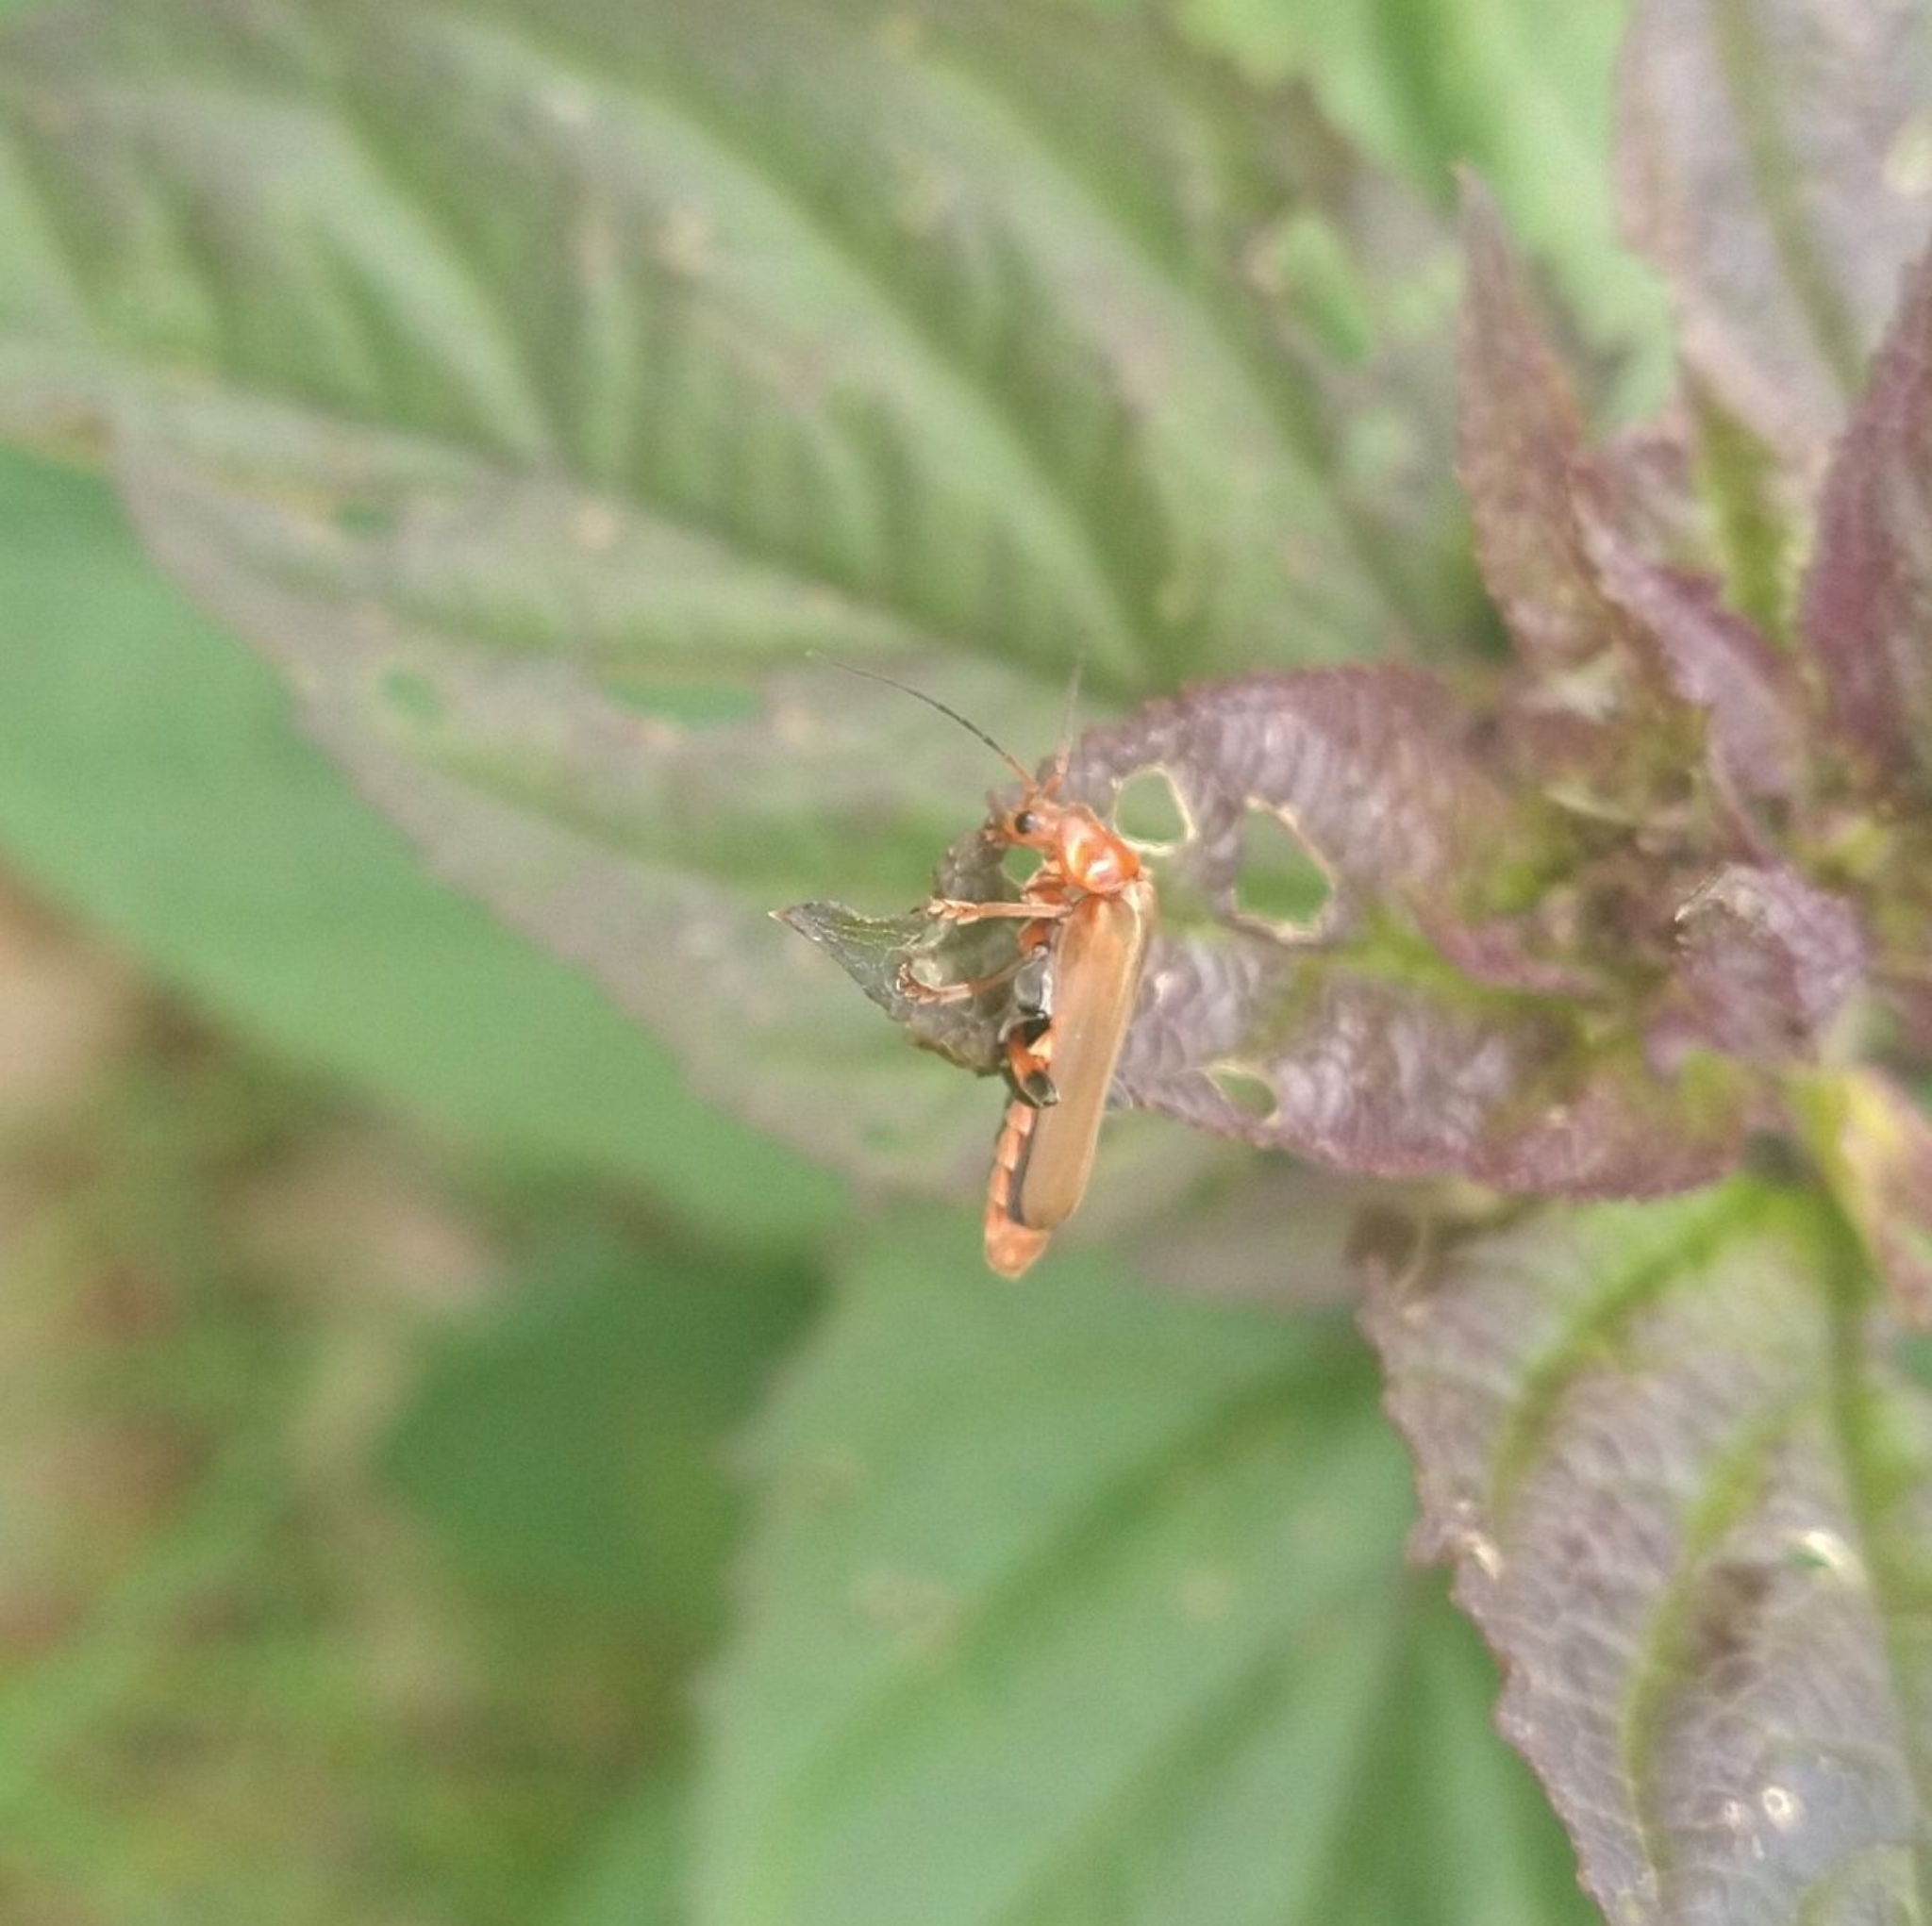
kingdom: Animalia
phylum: Arthropoda
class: Insecta
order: Coleoptera
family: Cantharidae
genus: Cantharis
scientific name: Cantharis livida
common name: Livid soldier beetle
